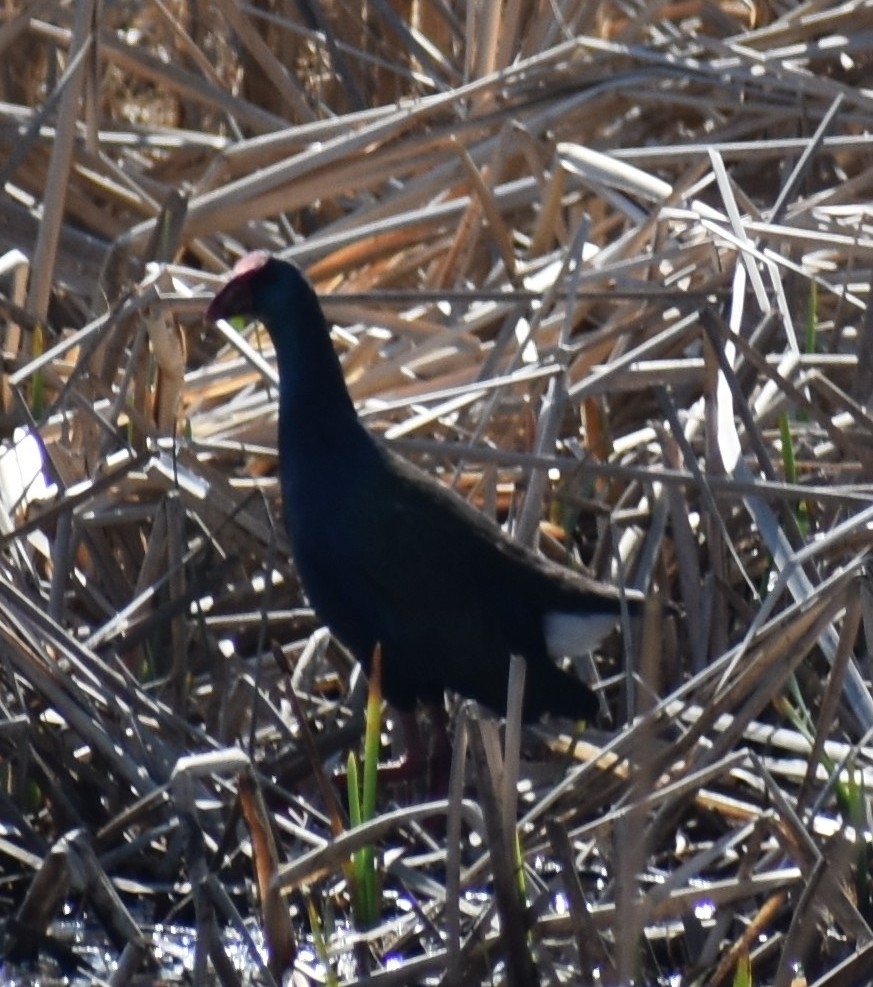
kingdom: Animalia
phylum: Chordata
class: Aves
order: Gruiformes
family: Rallidae
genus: Porphyrio
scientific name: Porphyrio porphyrio
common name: Purple swamphen
